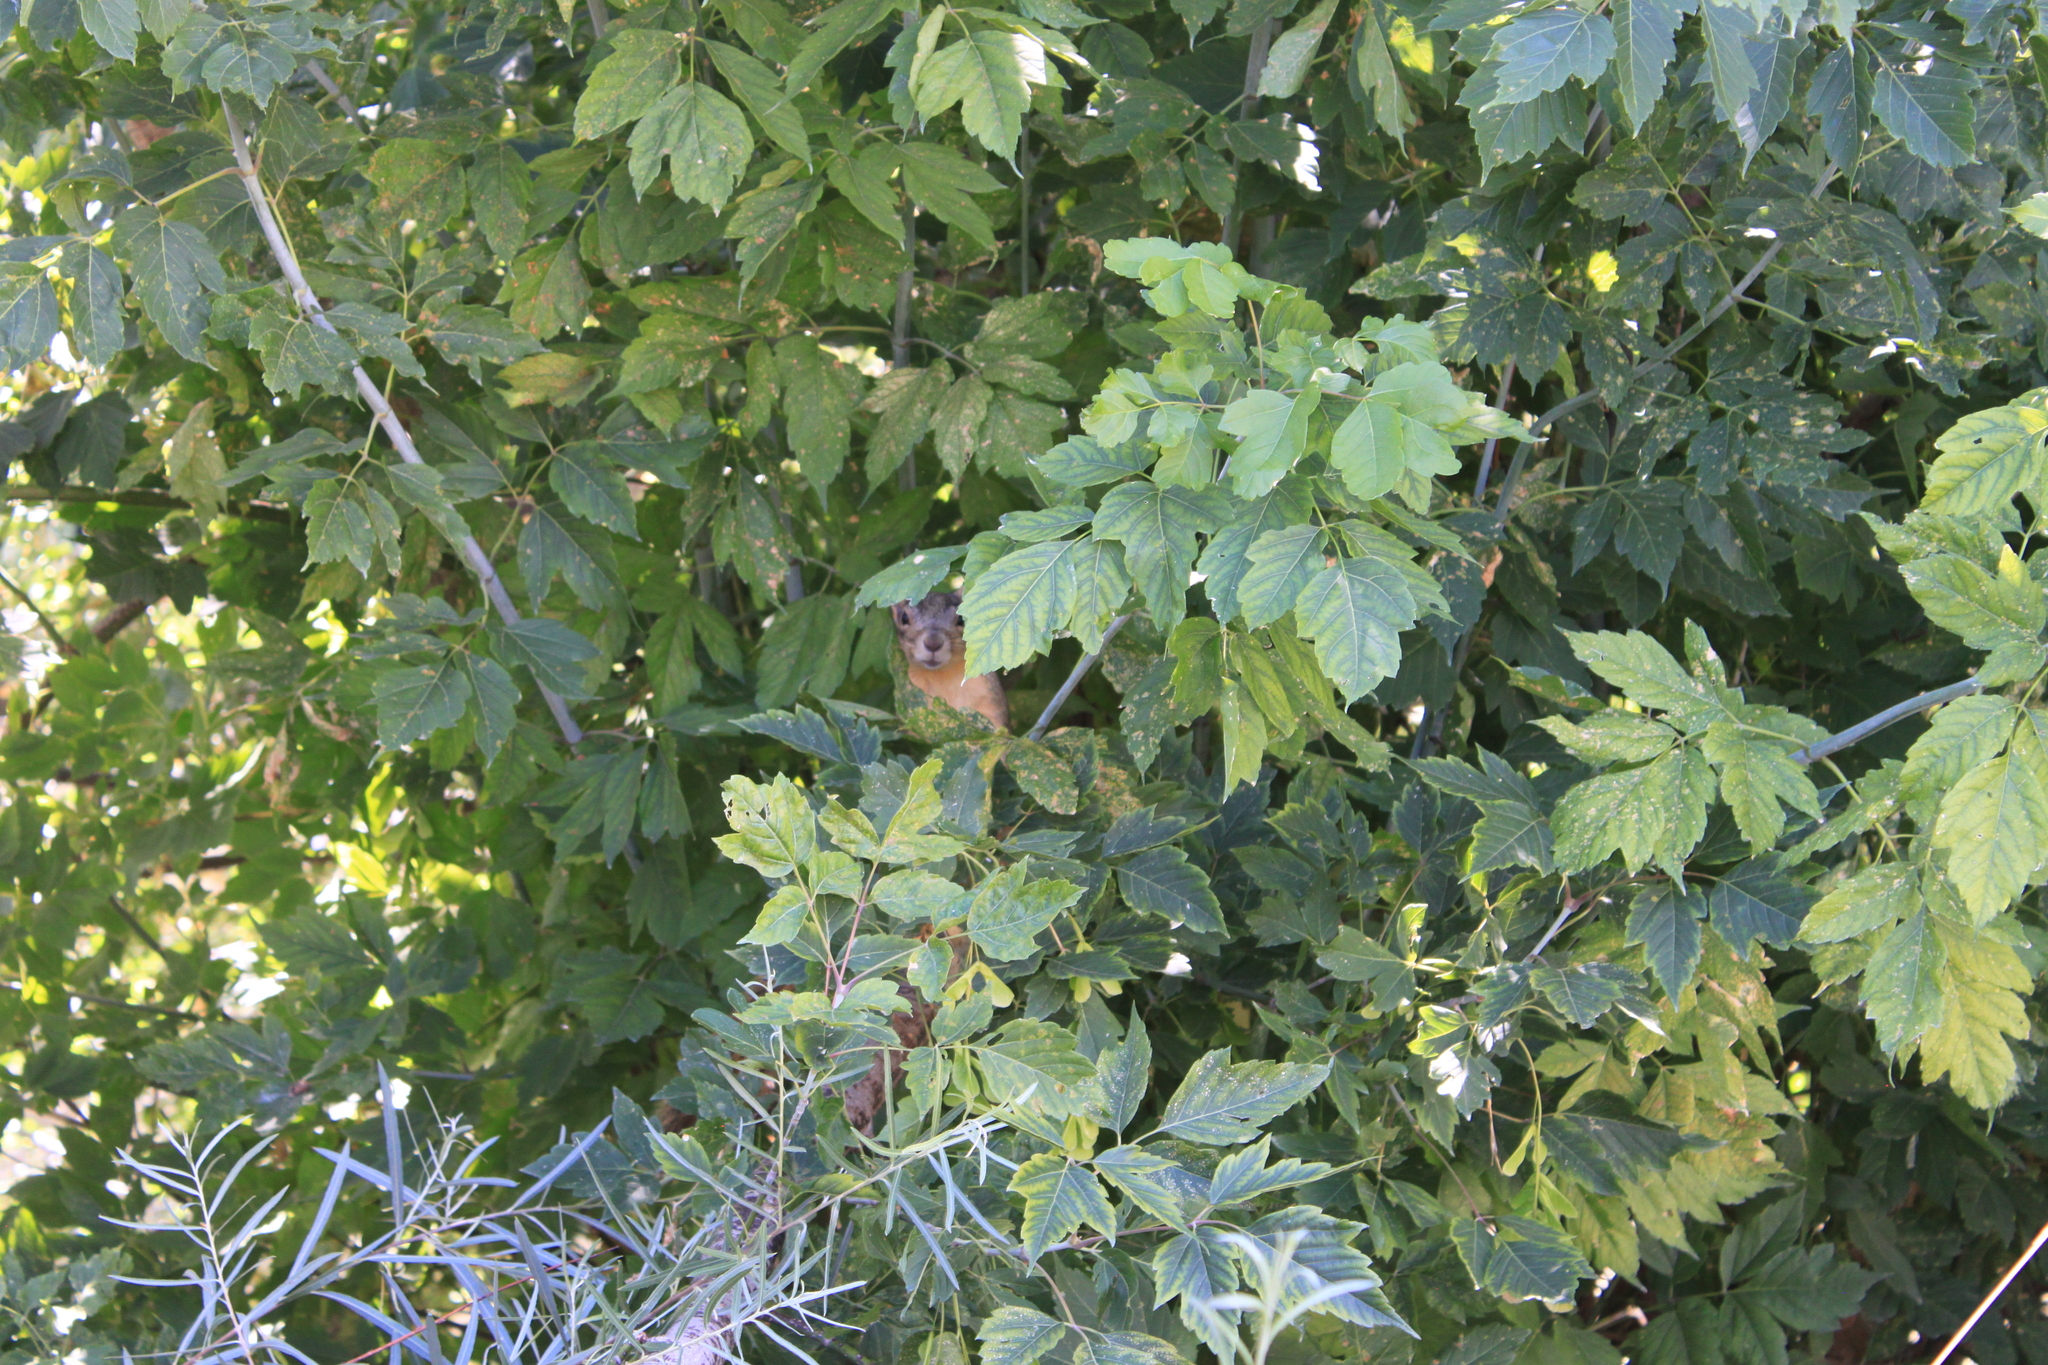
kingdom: Animalia
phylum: Chordata
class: Mammalia
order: Rodentia
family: Sciuridae
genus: Sciurus
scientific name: Sciurus niger
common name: Fox squirrel
